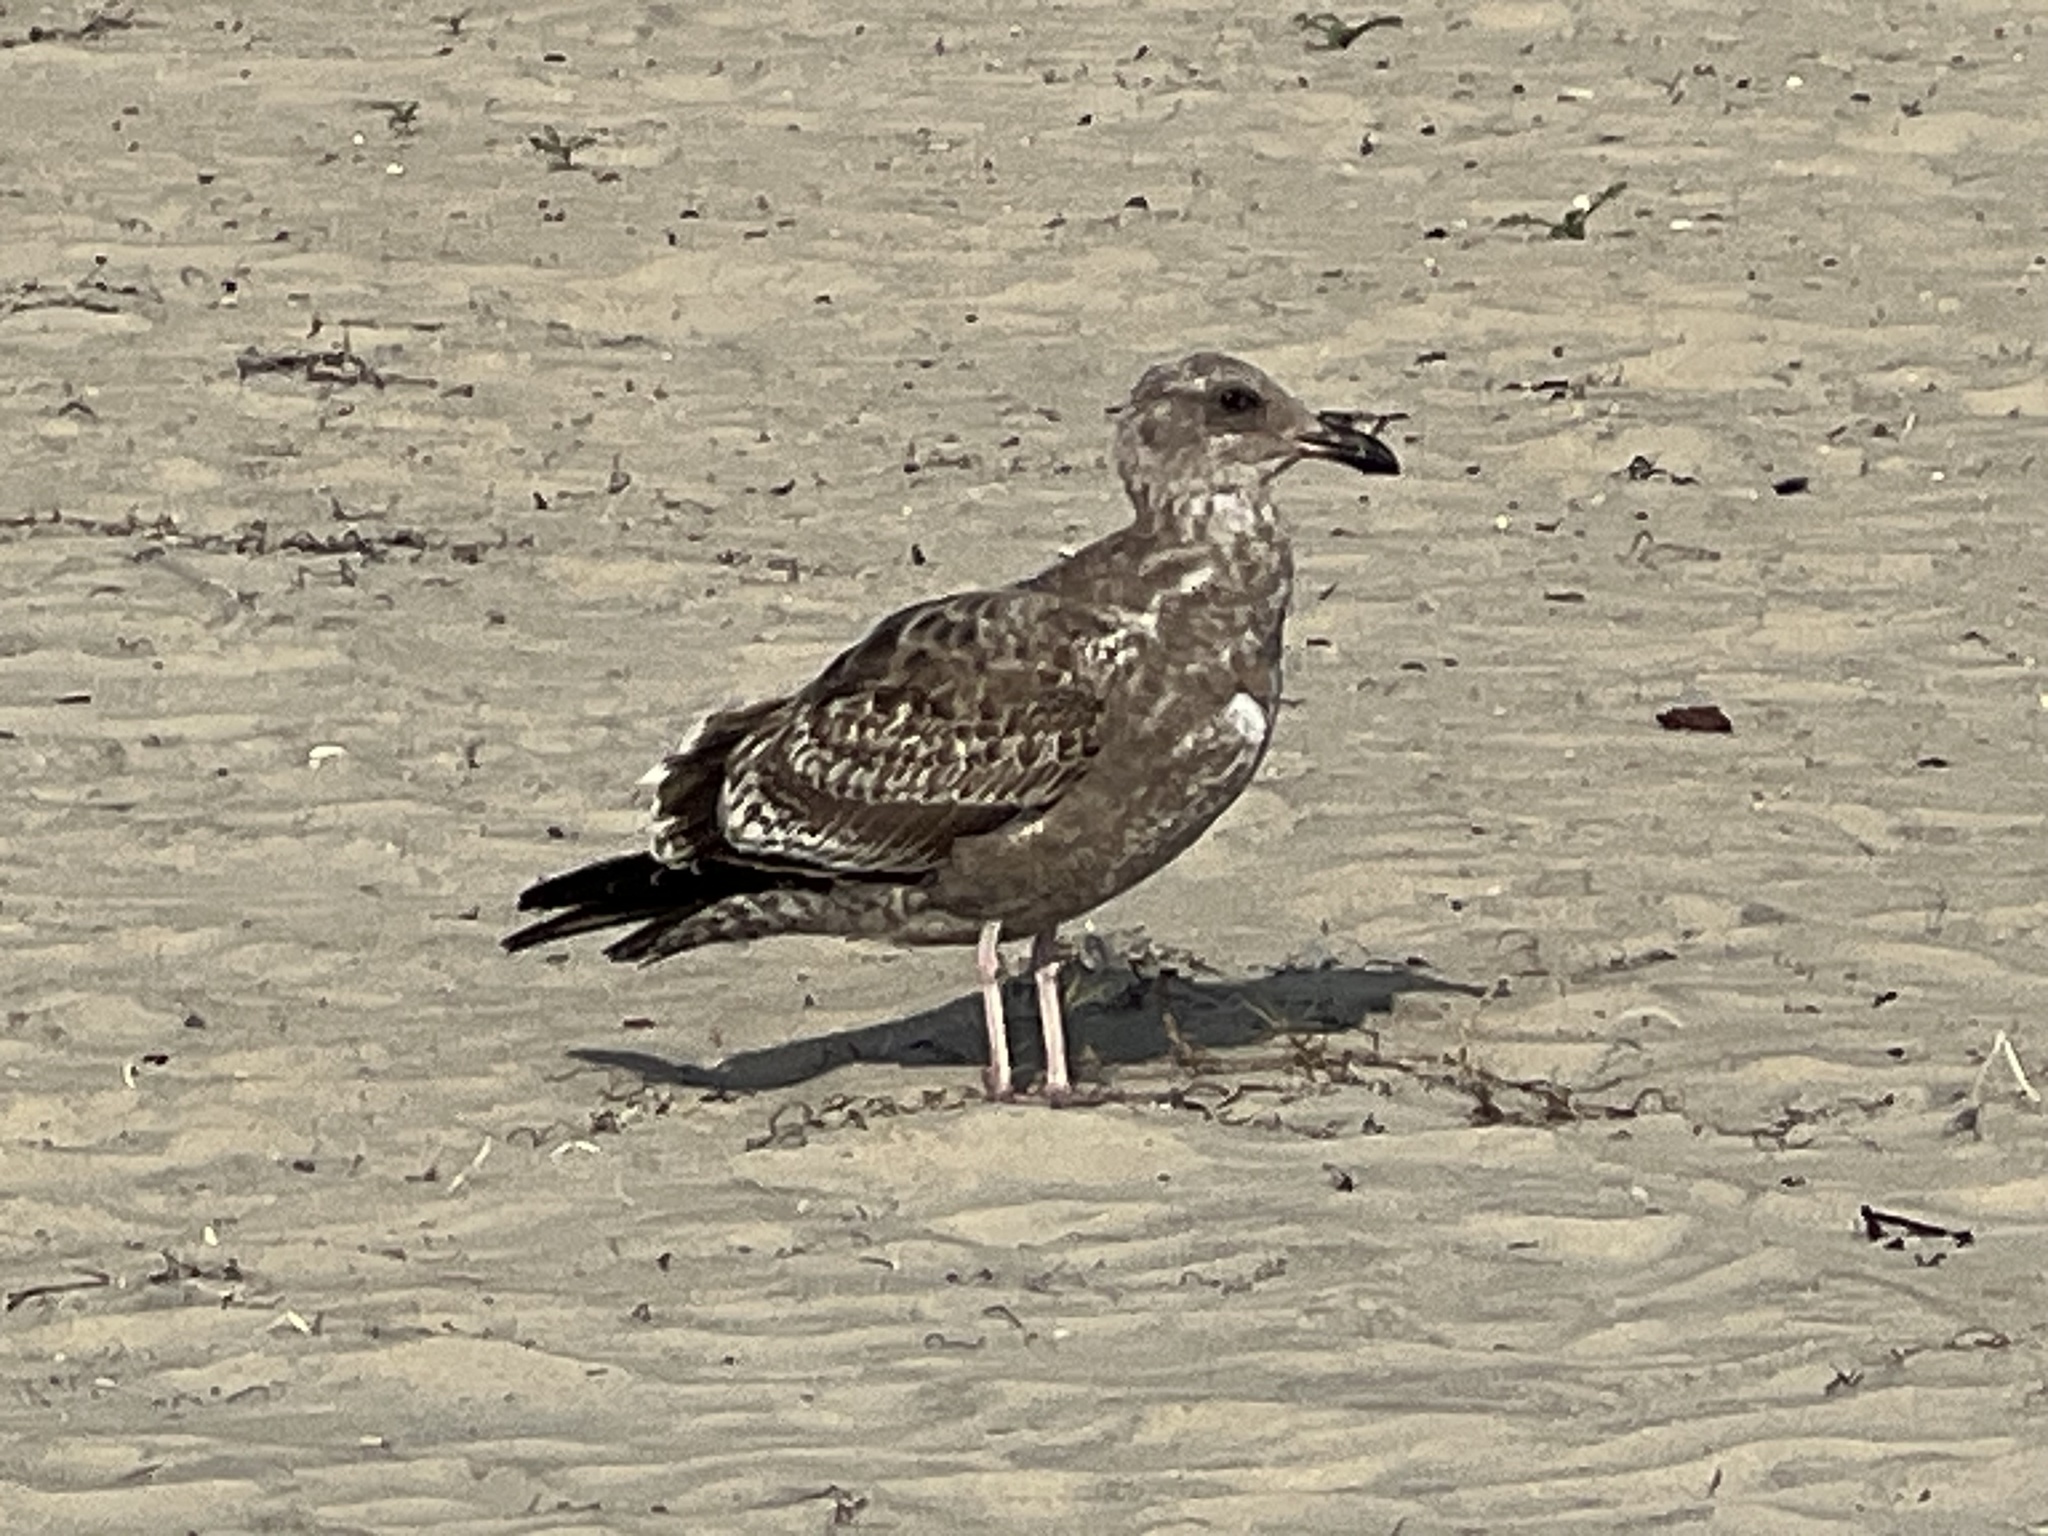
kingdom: Animalia
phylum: Chordata
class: Aves
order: Charadriiformes
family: Laridae
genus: Larus
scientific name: Larus occidentalis
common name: Western gull
